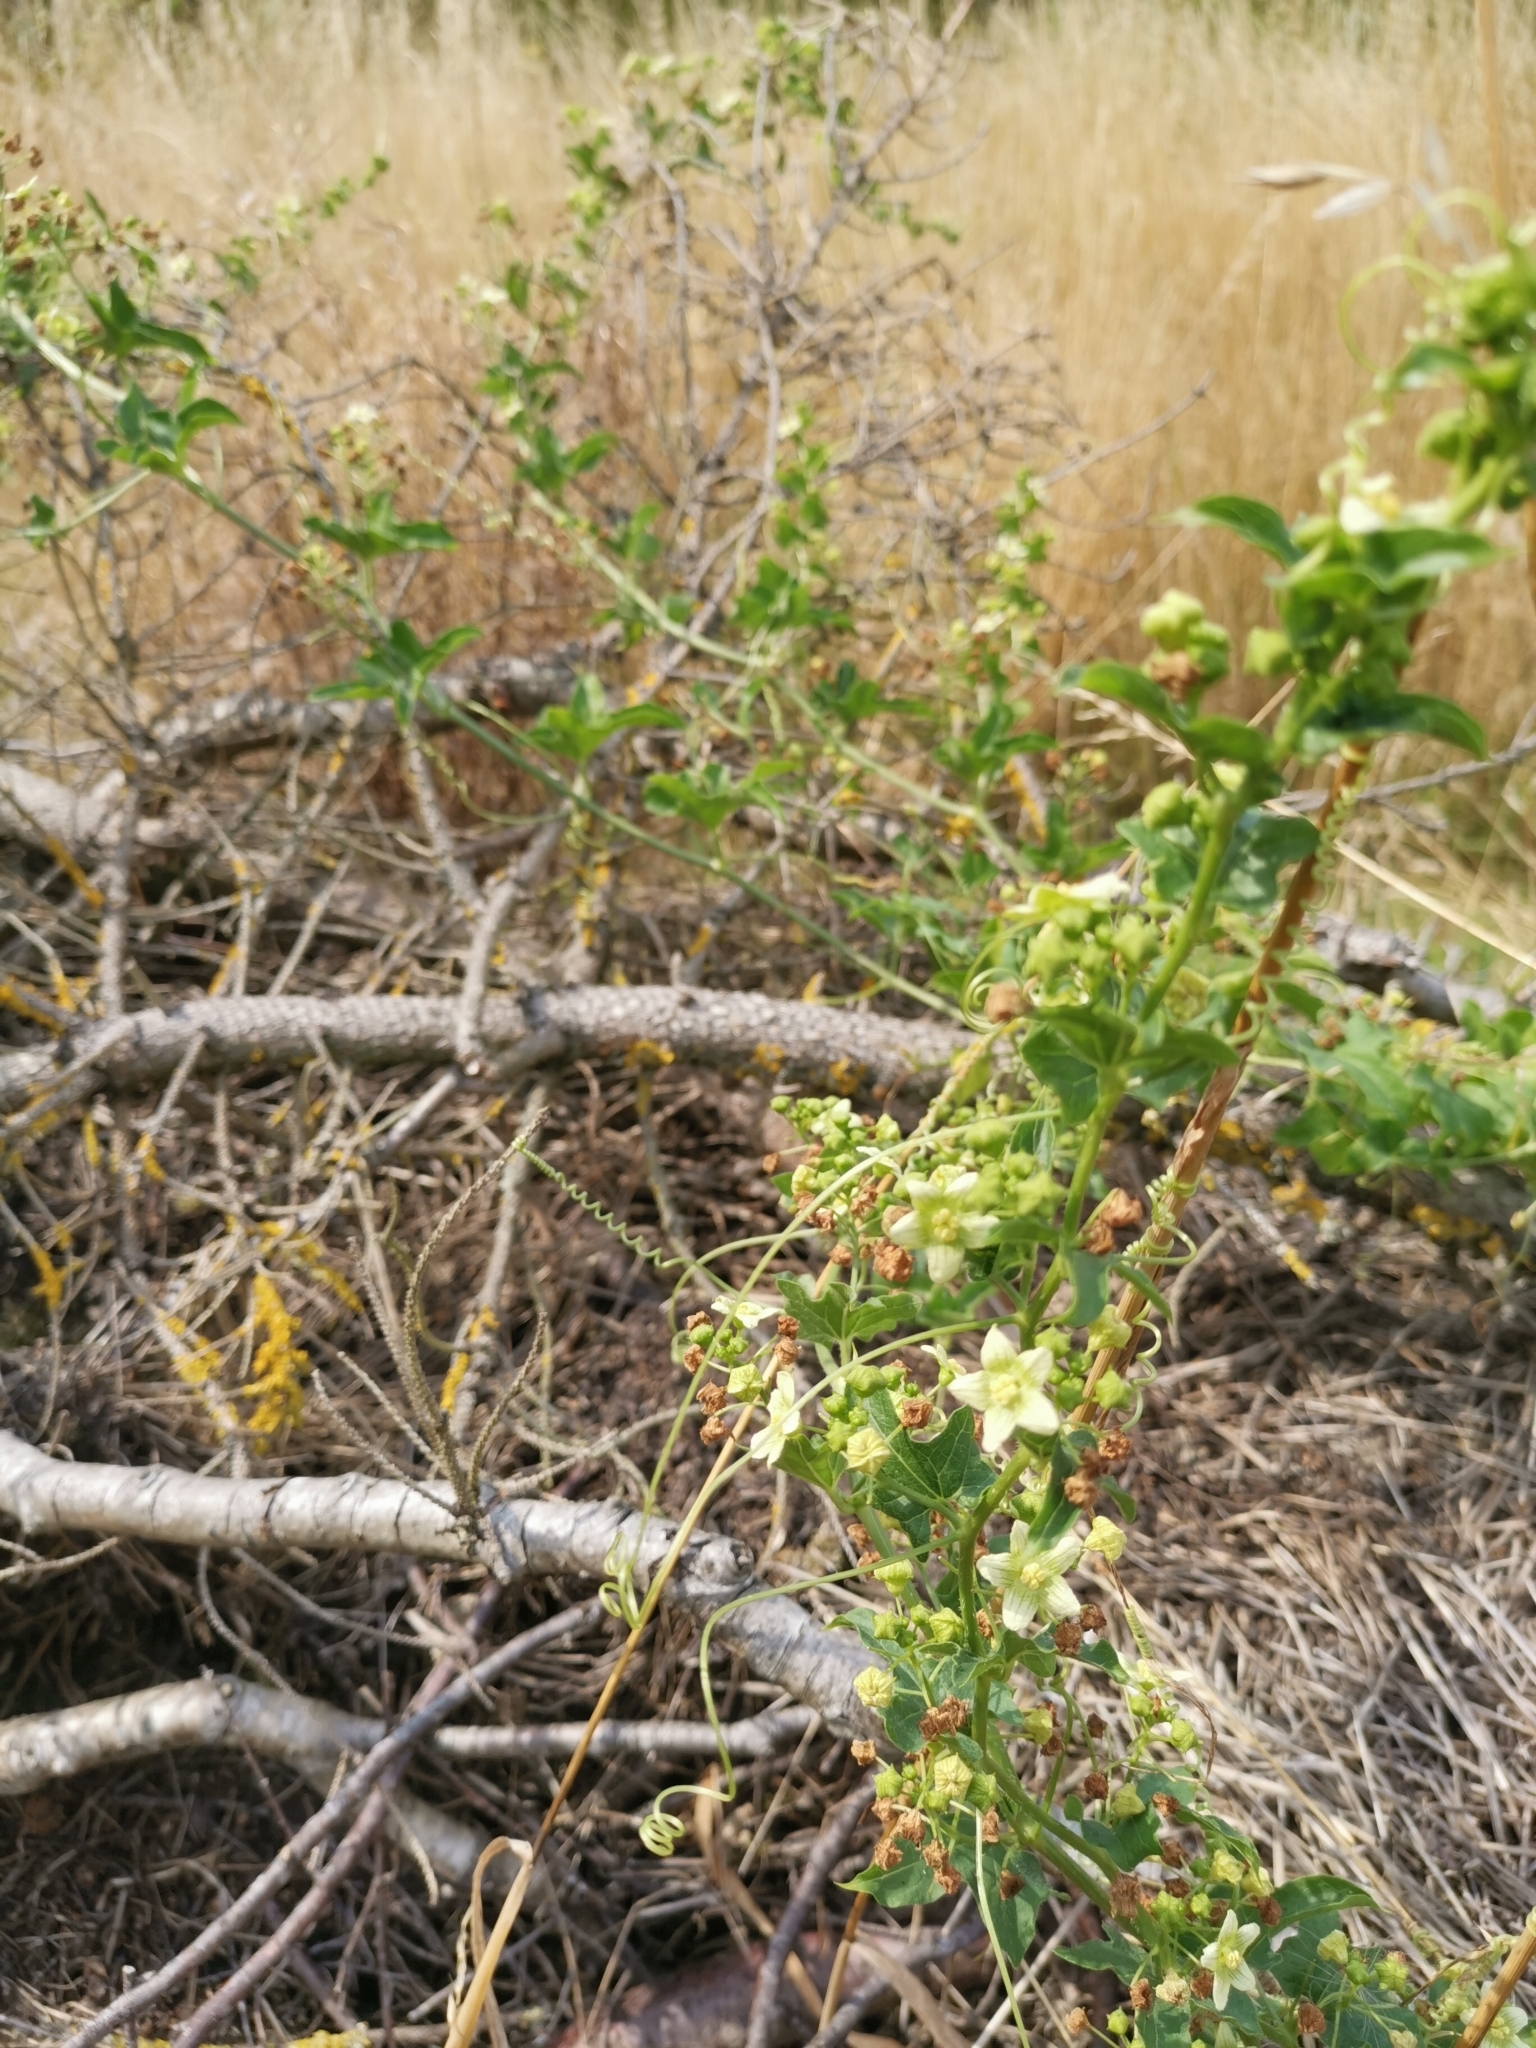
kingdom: Plantae
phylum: Tracheophyta
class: Magnoliopsida
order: Cucurbitales
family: Cucurbitaceae
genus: Bryonia
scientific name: Bryonia cretica
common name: Cretan bryony
